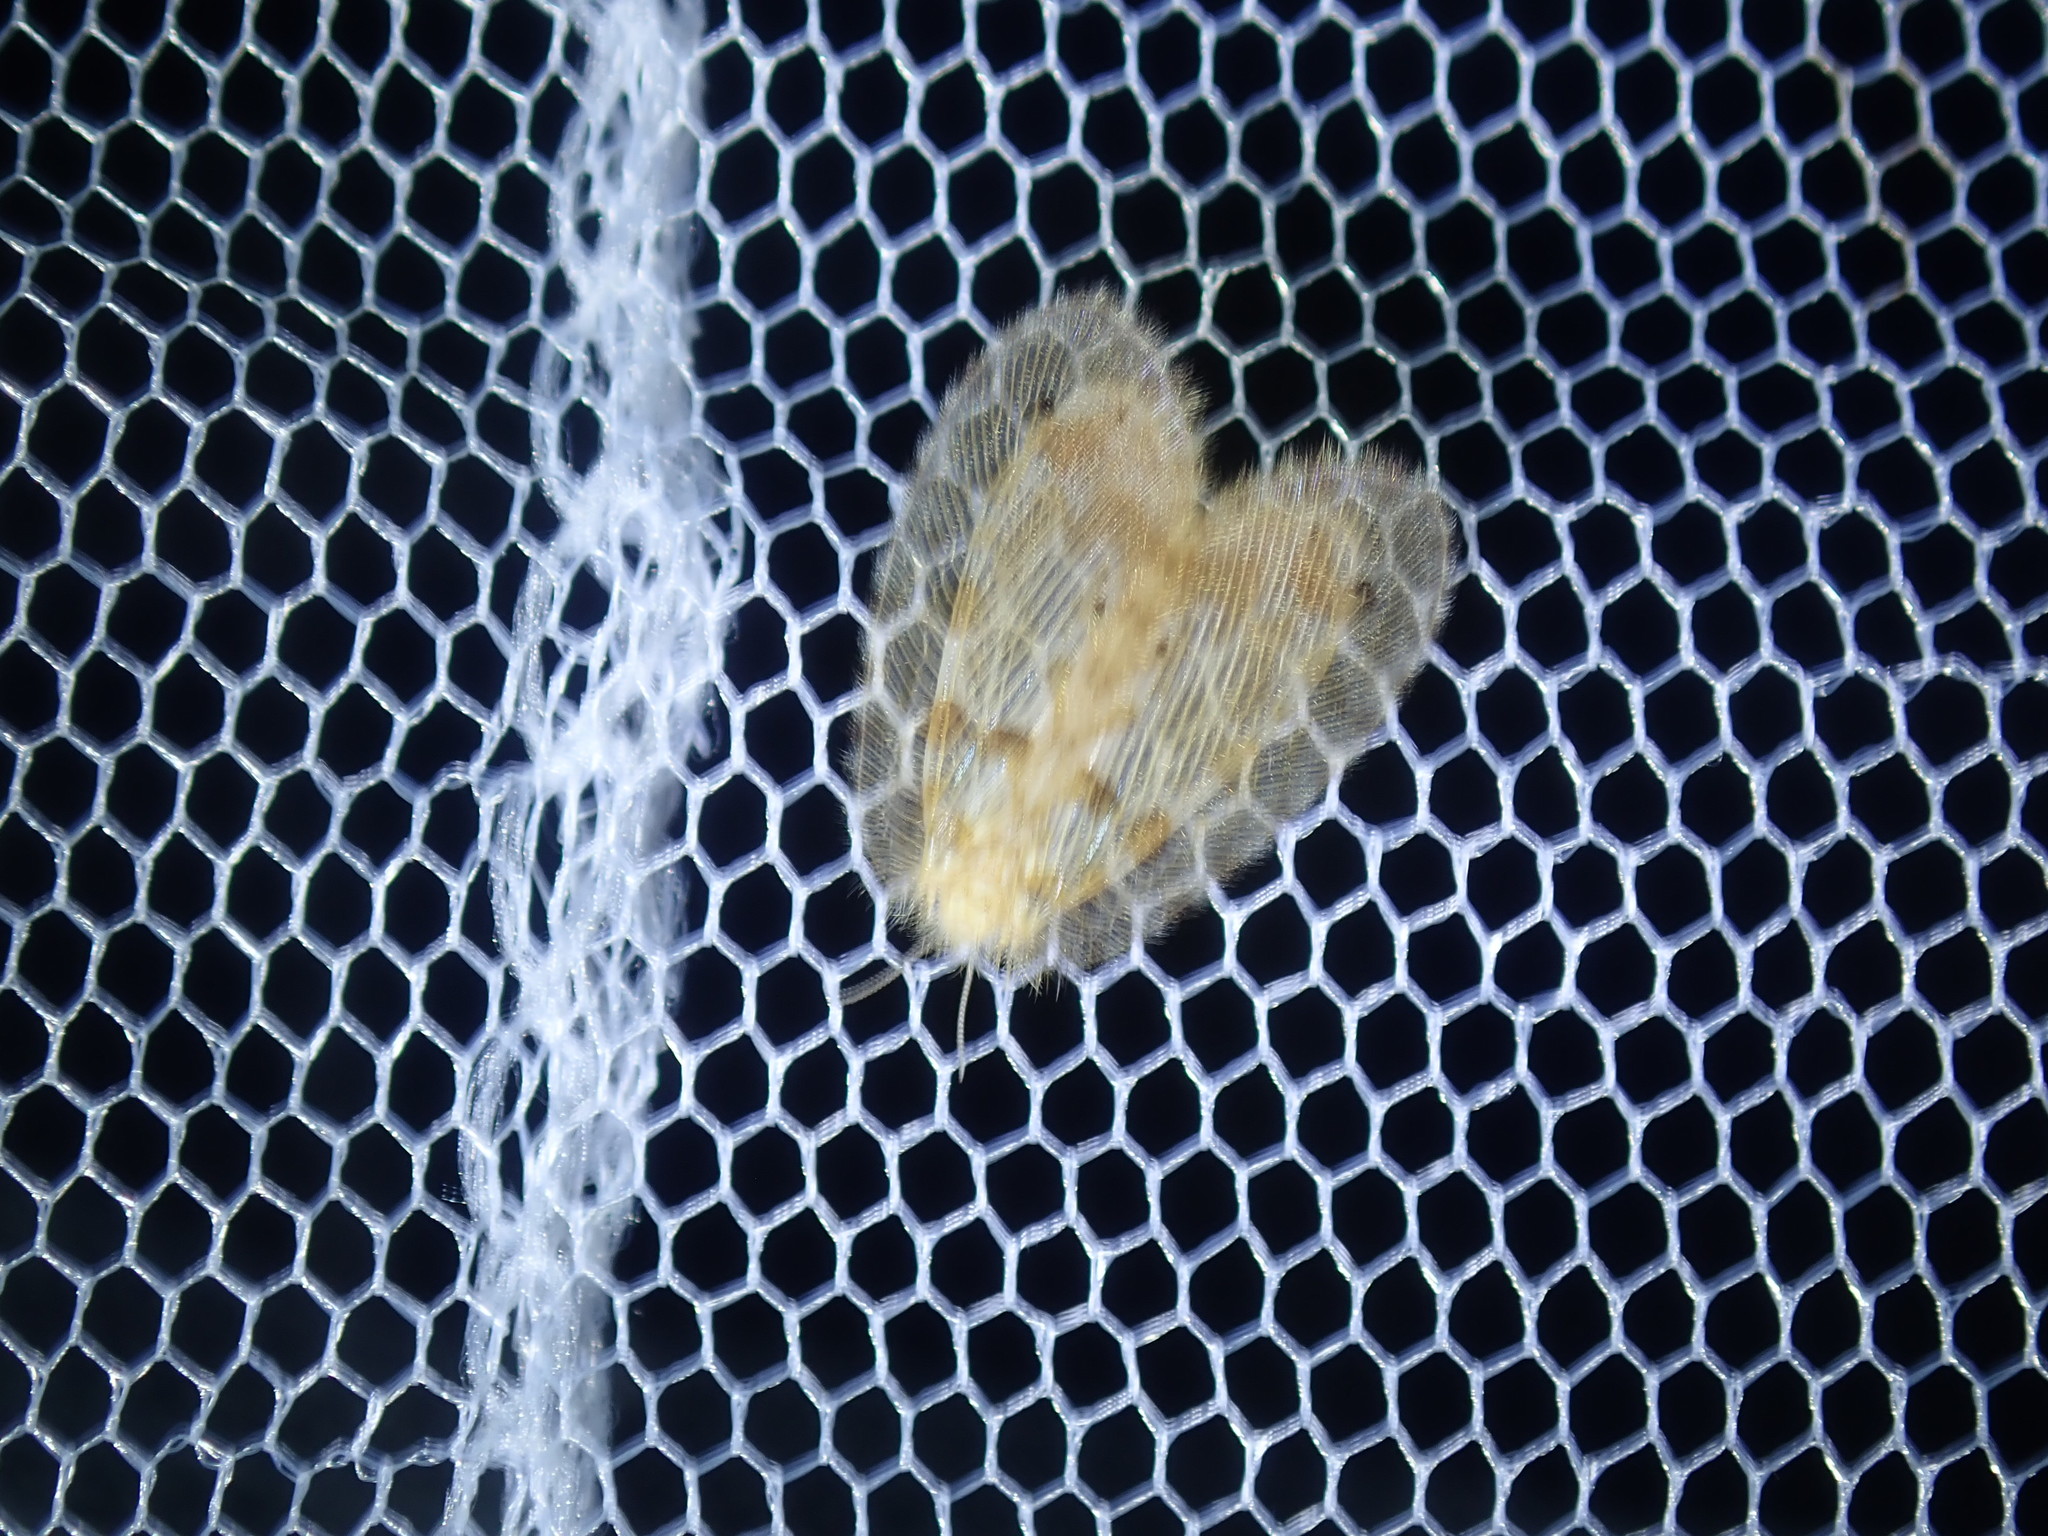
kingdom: Animalia
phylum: Arthropoda
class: Insecta
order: Neuroptera
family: Psychopsidae
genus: Psychopsis
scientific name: Psychopsis insolens
